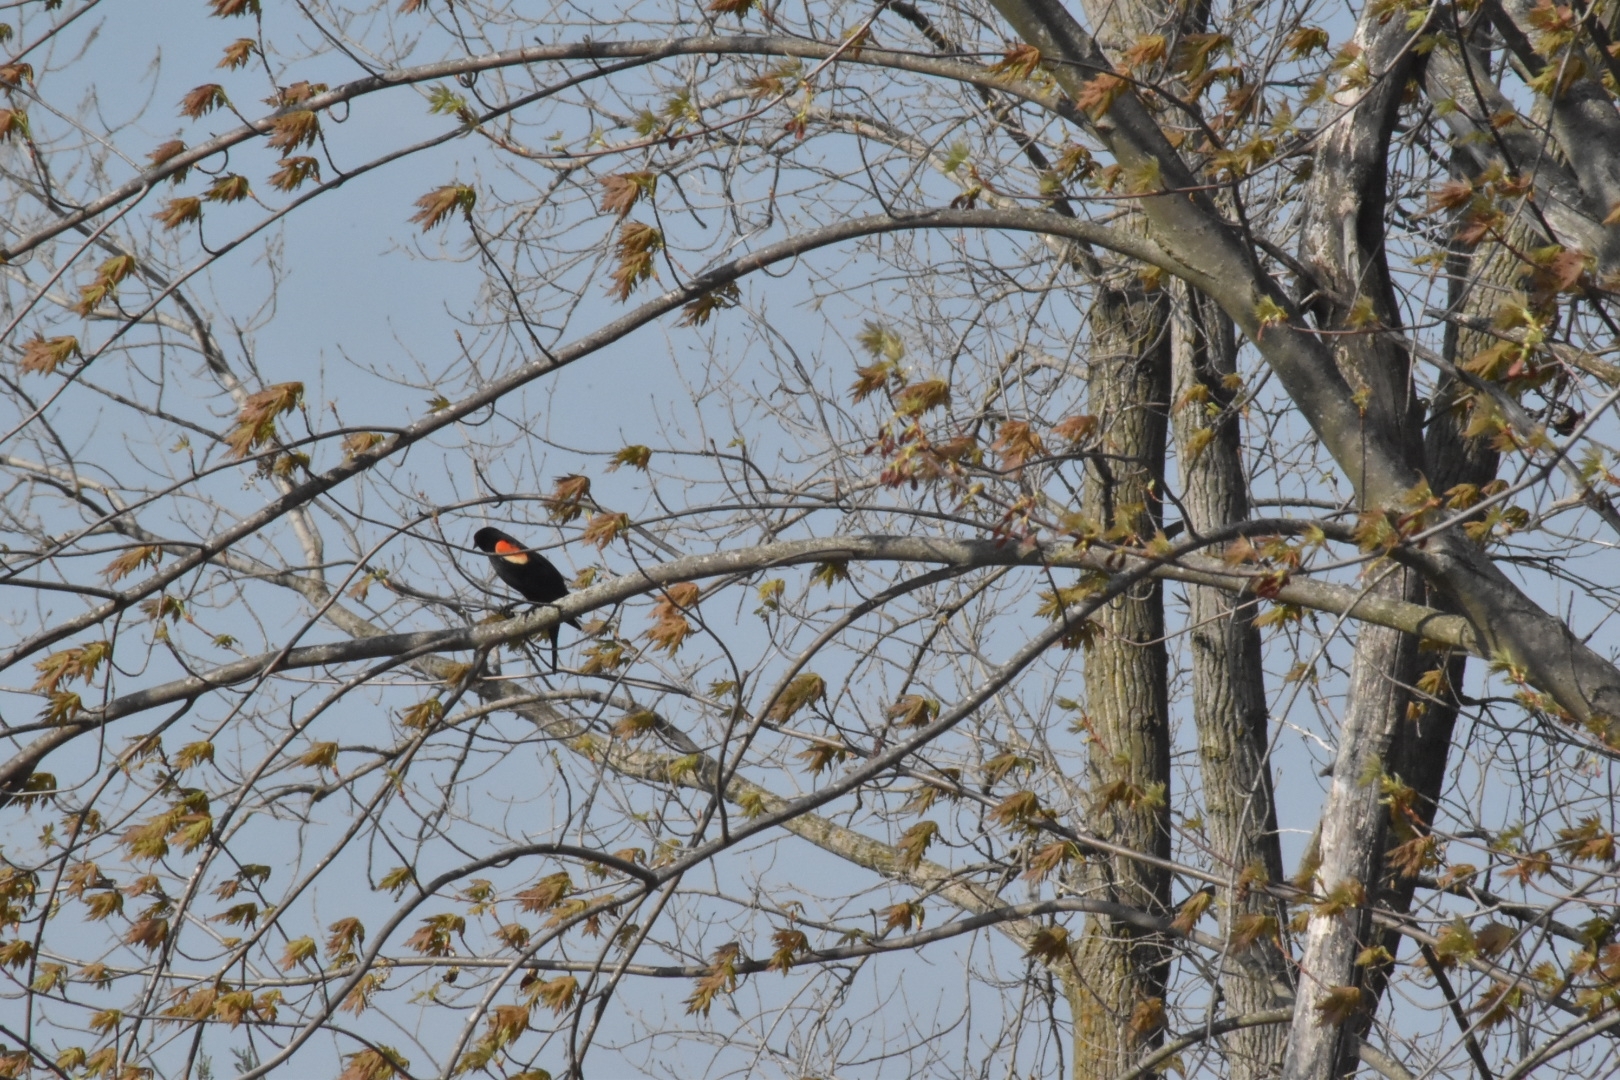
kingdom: Animalia
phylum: Chordata
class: Aves
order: Passeriformes
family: Icteridae
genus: Agelaius
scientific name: Agelaius phoeniceus
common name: Red-winged blackbird
